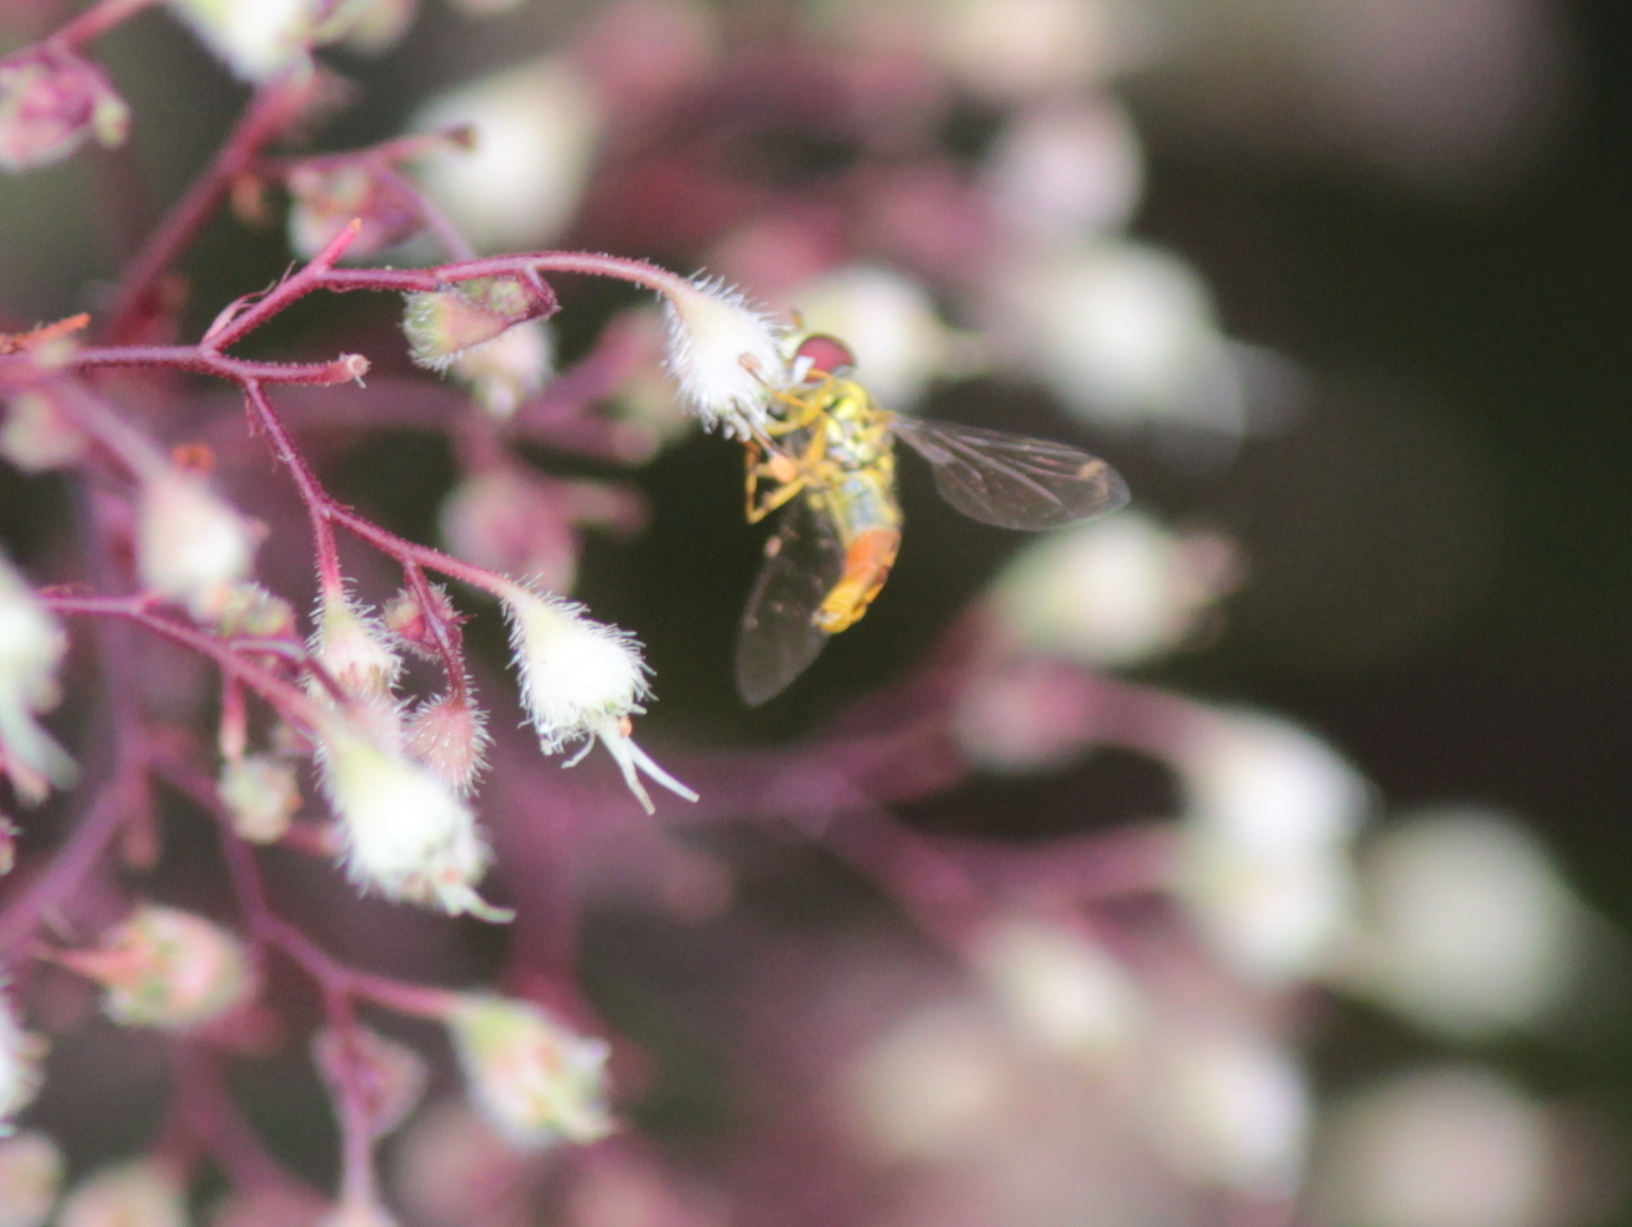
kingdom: Animalia
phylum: Arthropoda
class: Insecta
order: Diptera
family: Syrphidae
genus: Allograpta
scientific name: Allograpta obliqua
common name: Common oblique syrphid
